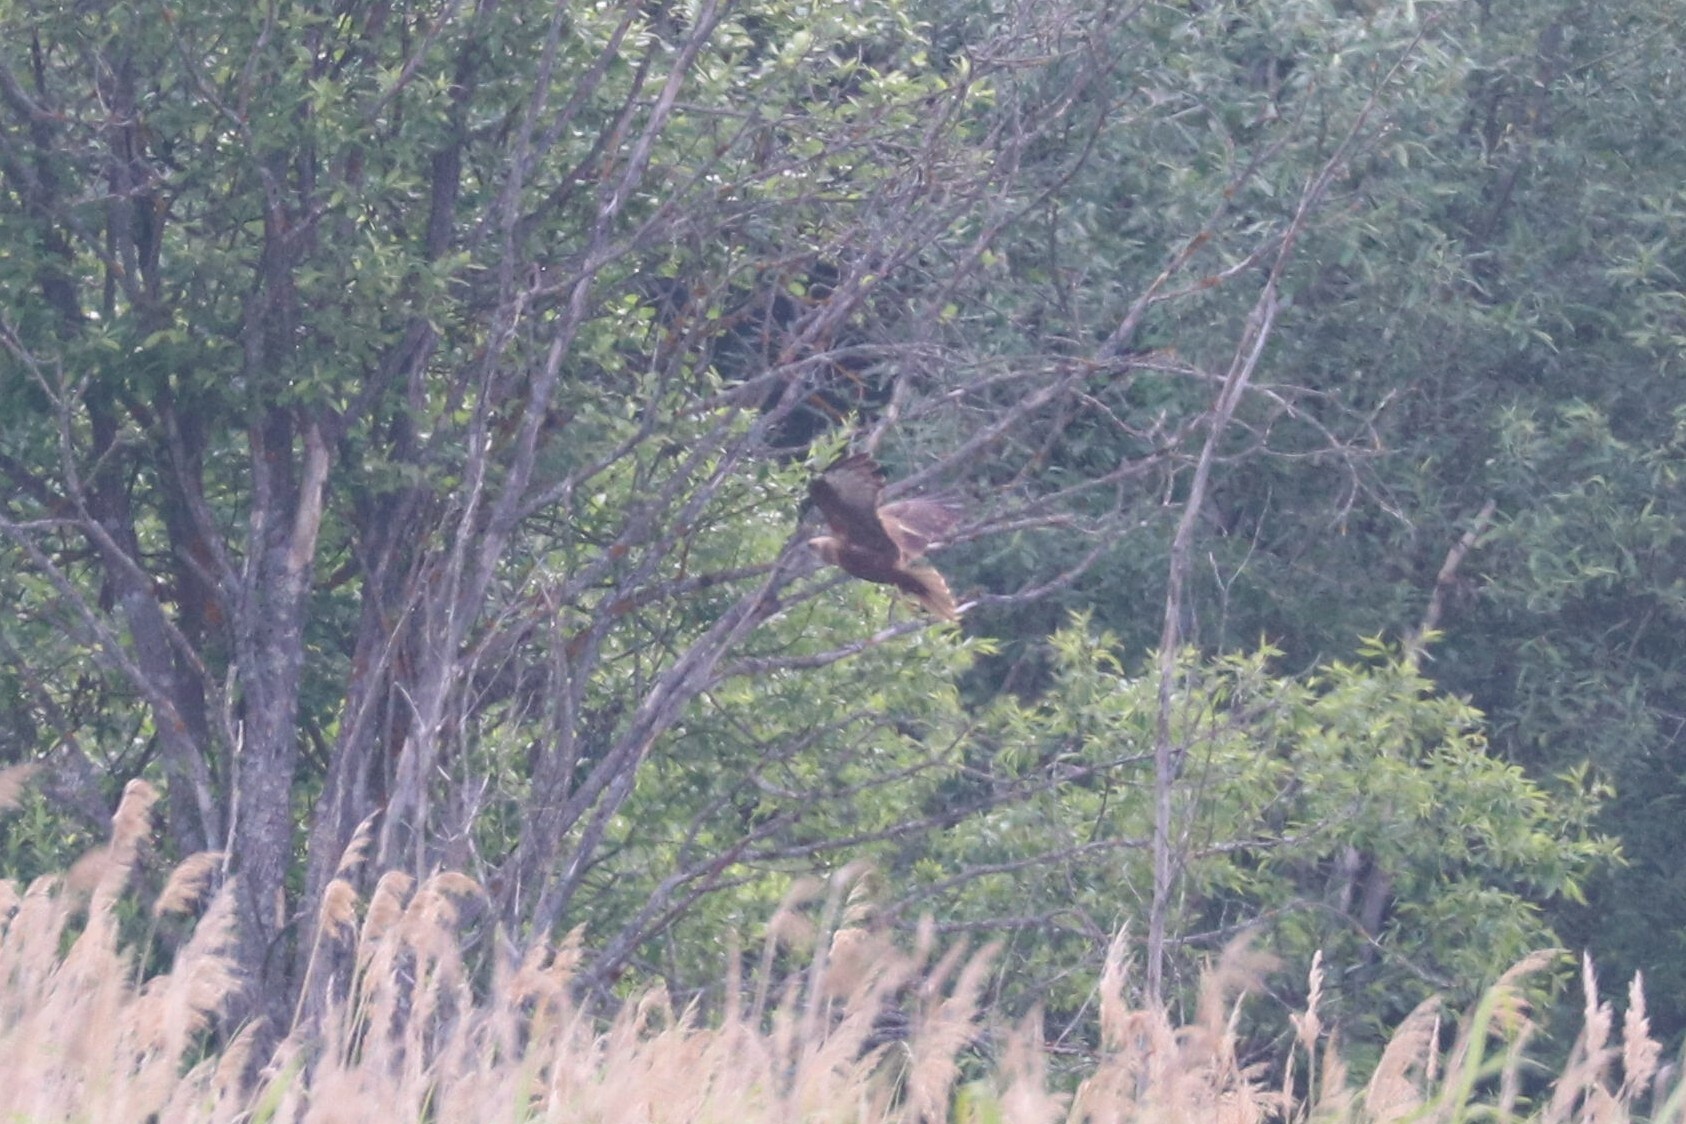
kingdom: Animalia
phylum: Chordata
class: Aves
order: Accipitriformes
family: Accipitridae
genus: Circus
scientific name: Circus aeruginosus
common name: Western marsh harrier
